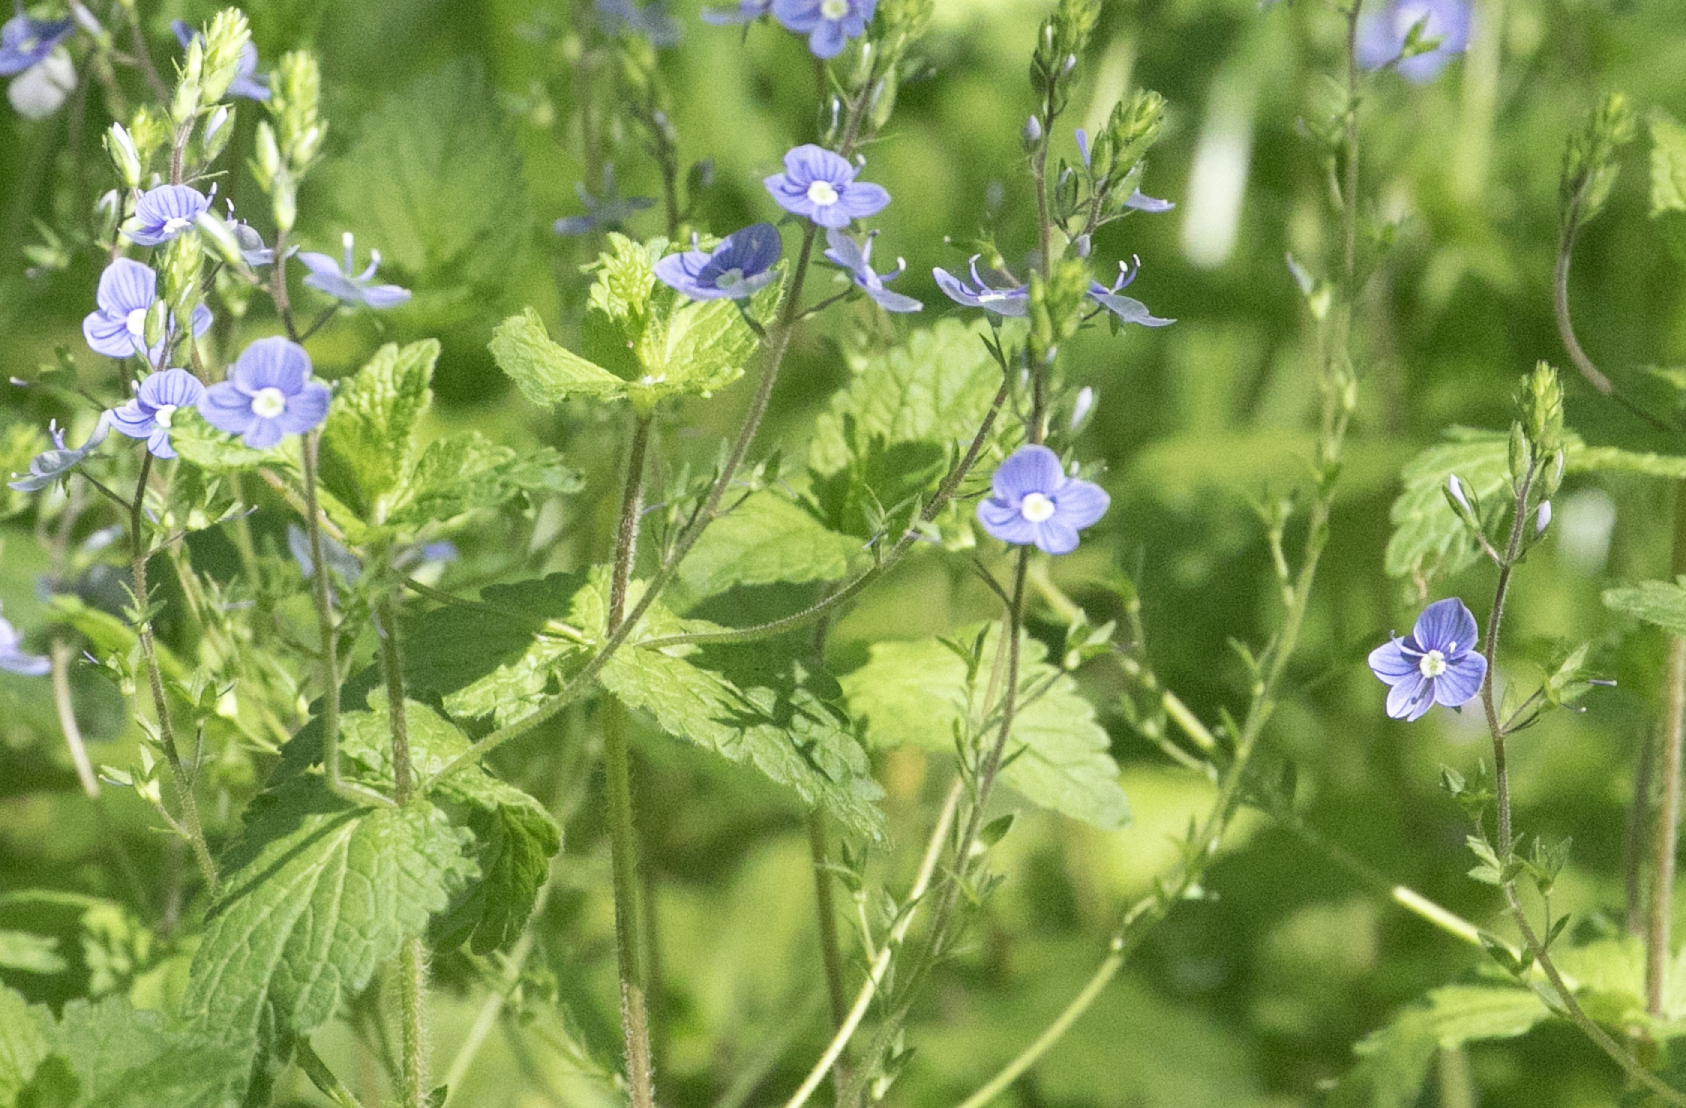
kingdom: Plantae
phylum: Tracheophyta
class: Magnoliopsida
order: Lamiales
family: Plantaginaceae
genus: Veronica
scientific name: Veronica chamaedrys
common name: Germander speedwell
